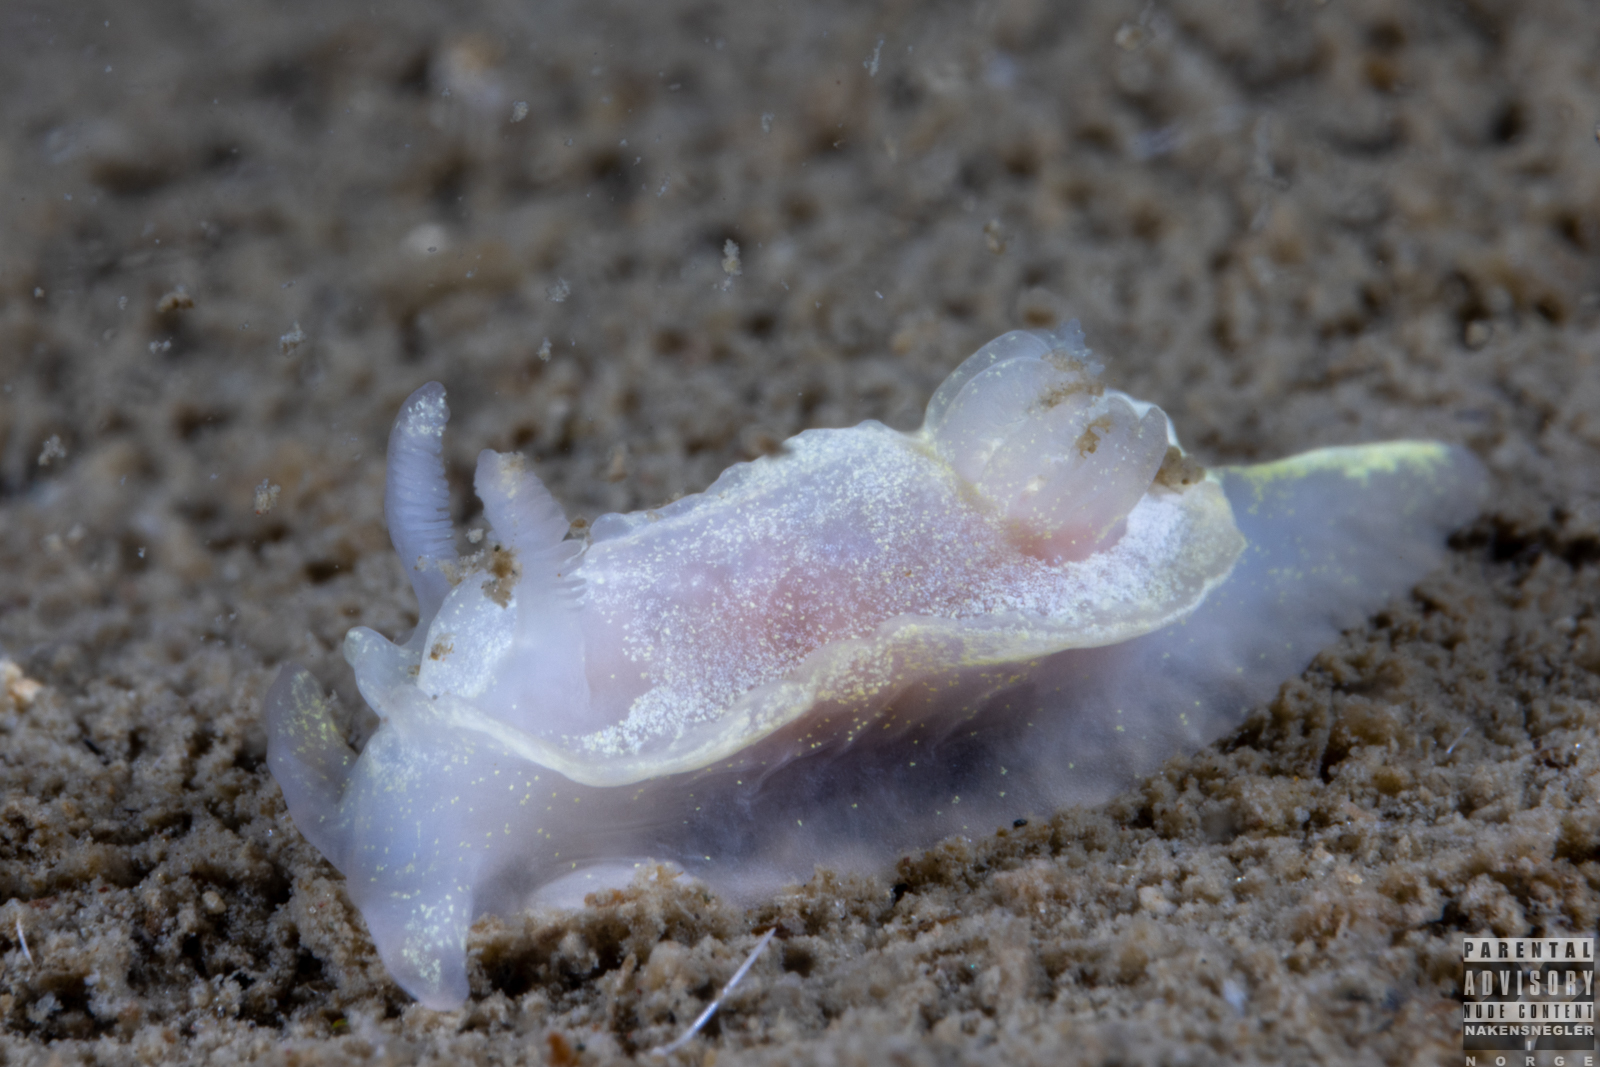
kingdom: Animalia
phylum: Mollusca
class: Gastropoda
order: Nudibranchia
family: Goniodorididae
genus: Okenia
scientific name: Okenia
